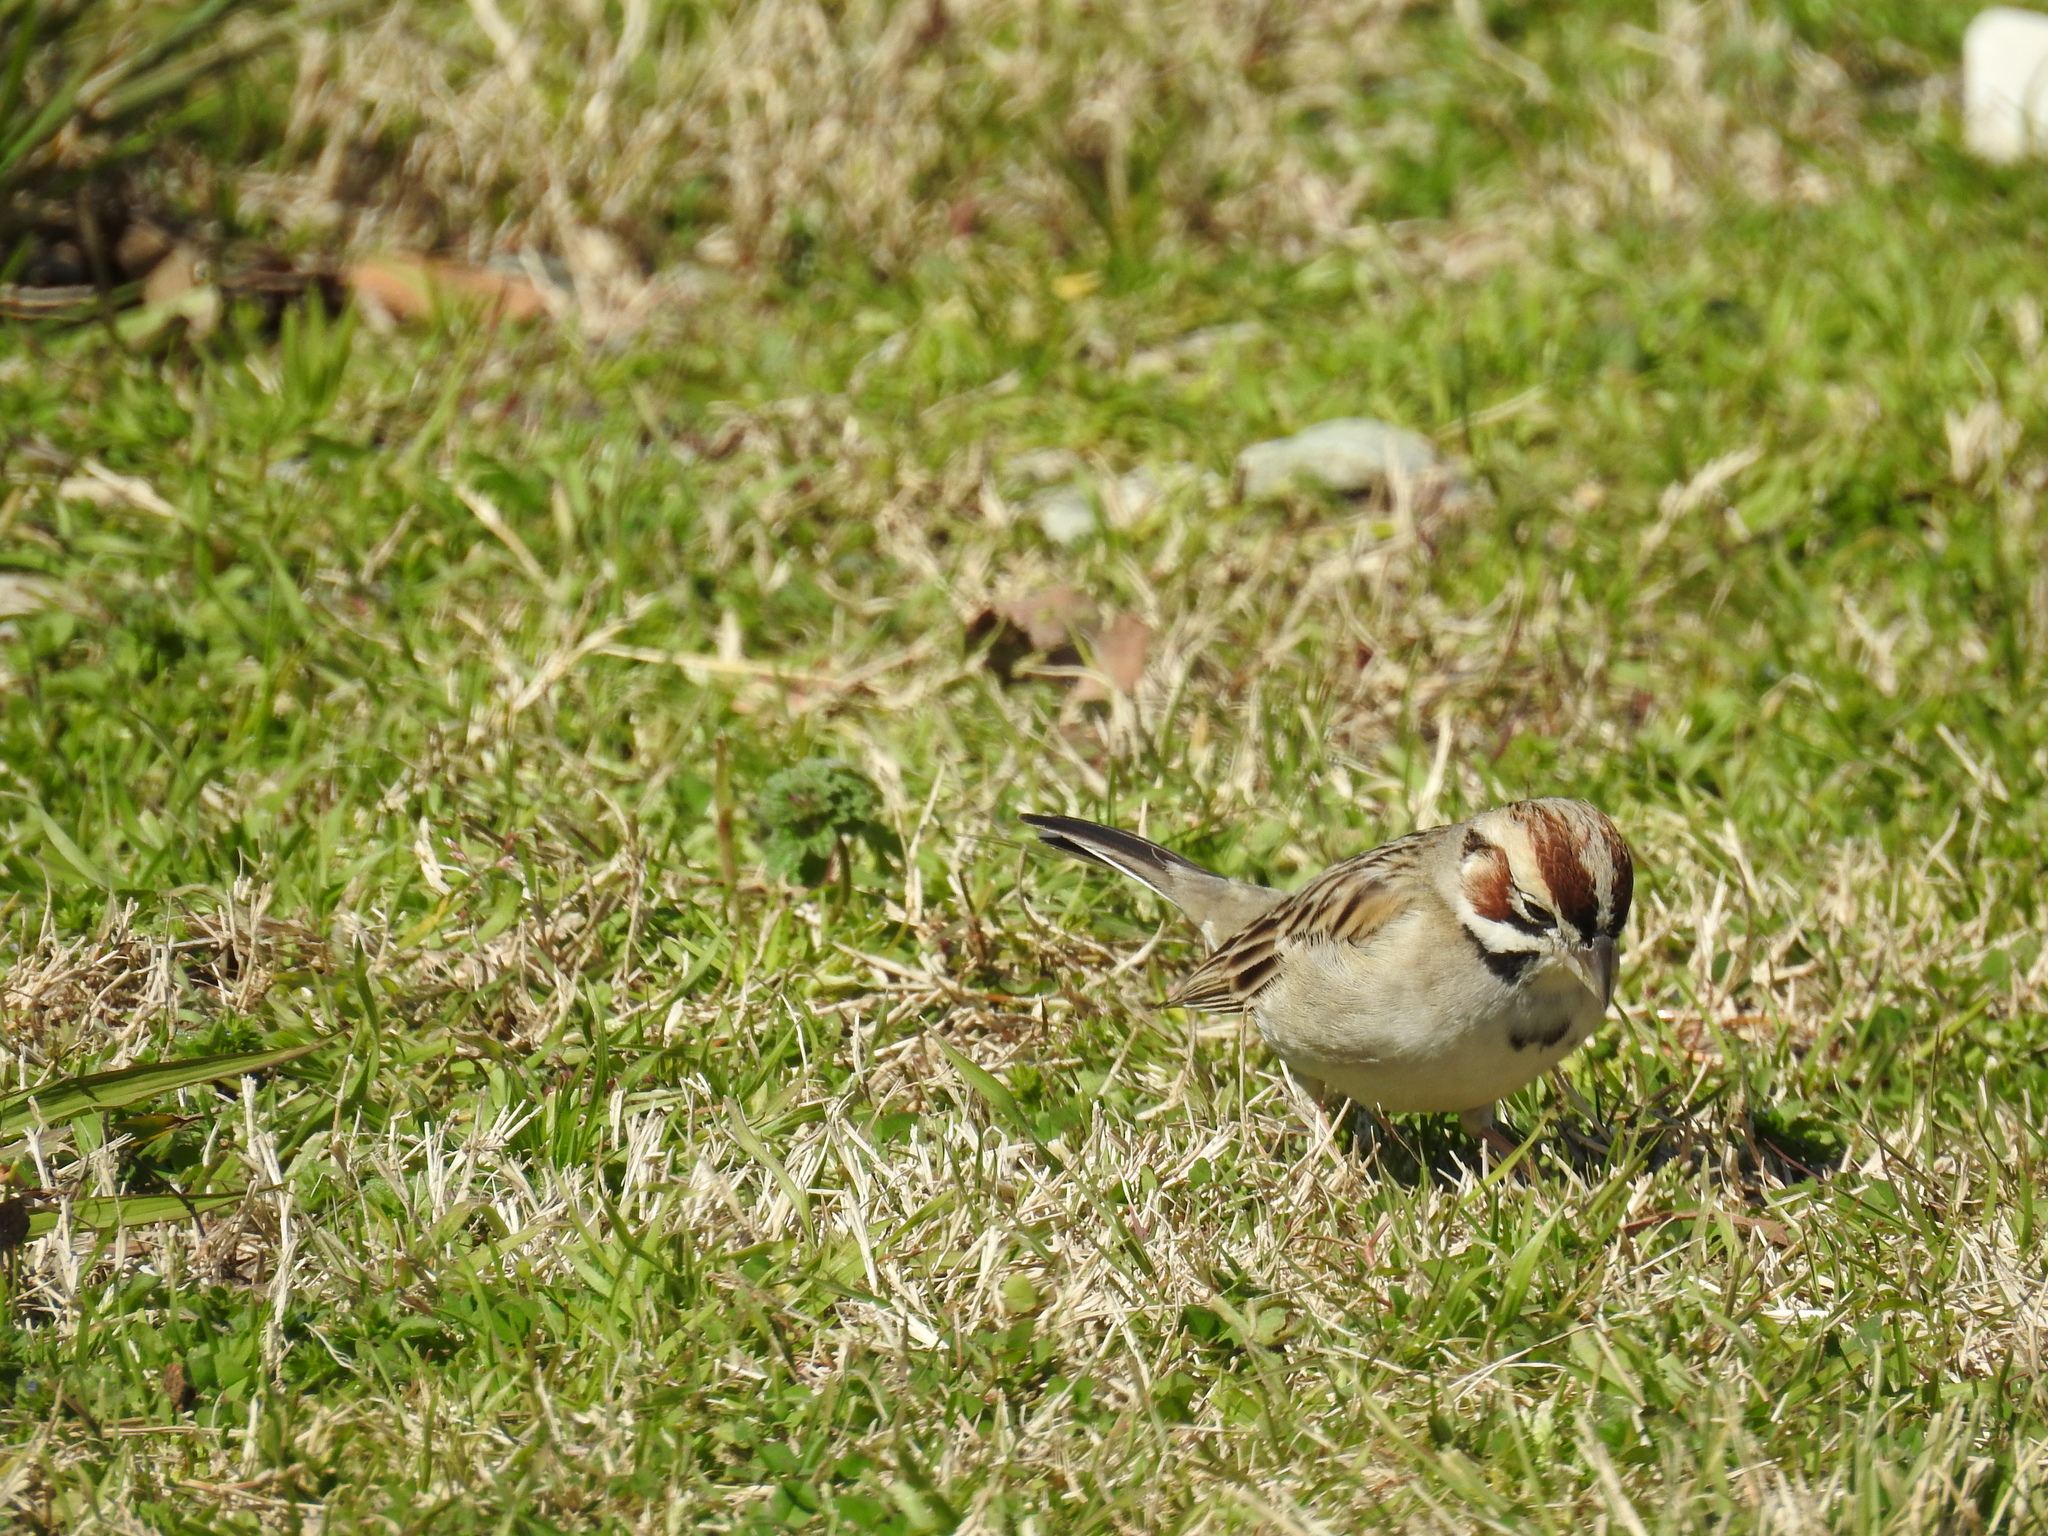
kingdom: Animalia
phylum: Chordata
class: Aves
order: Passeriformes
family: Passerellidae
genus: Chondestes
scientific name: Chondestes grammacus
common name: Lark sparrow
